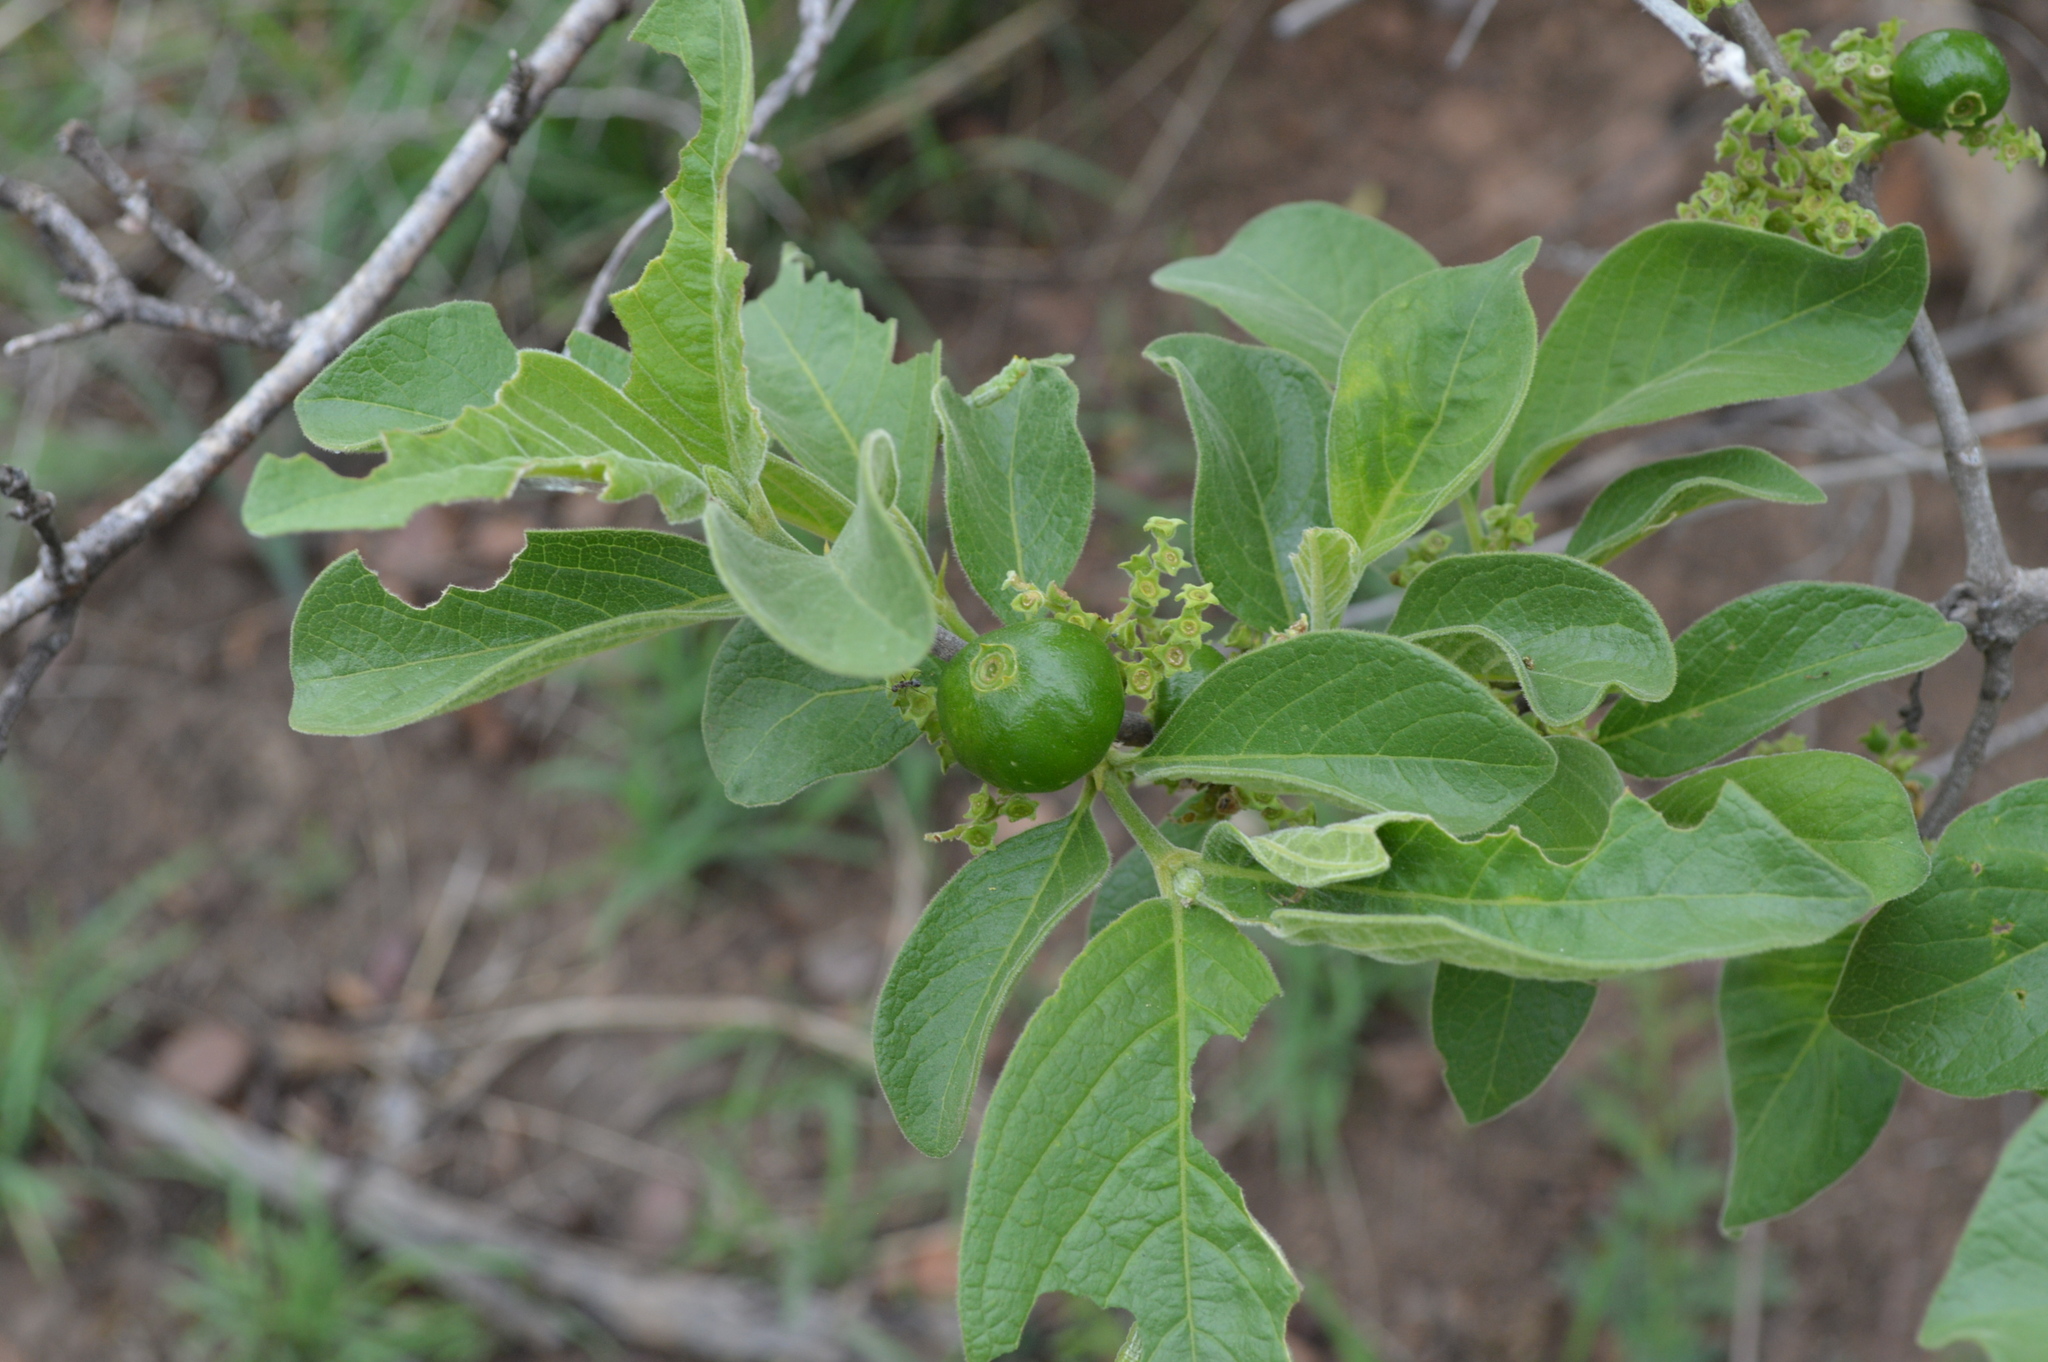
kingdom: Plantae
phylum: Tracheophyta
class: Magnoliopsida
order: Gentianales
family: Rubiaceae
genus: Vangueria
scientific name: Vangueria infausta
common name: Medlar
